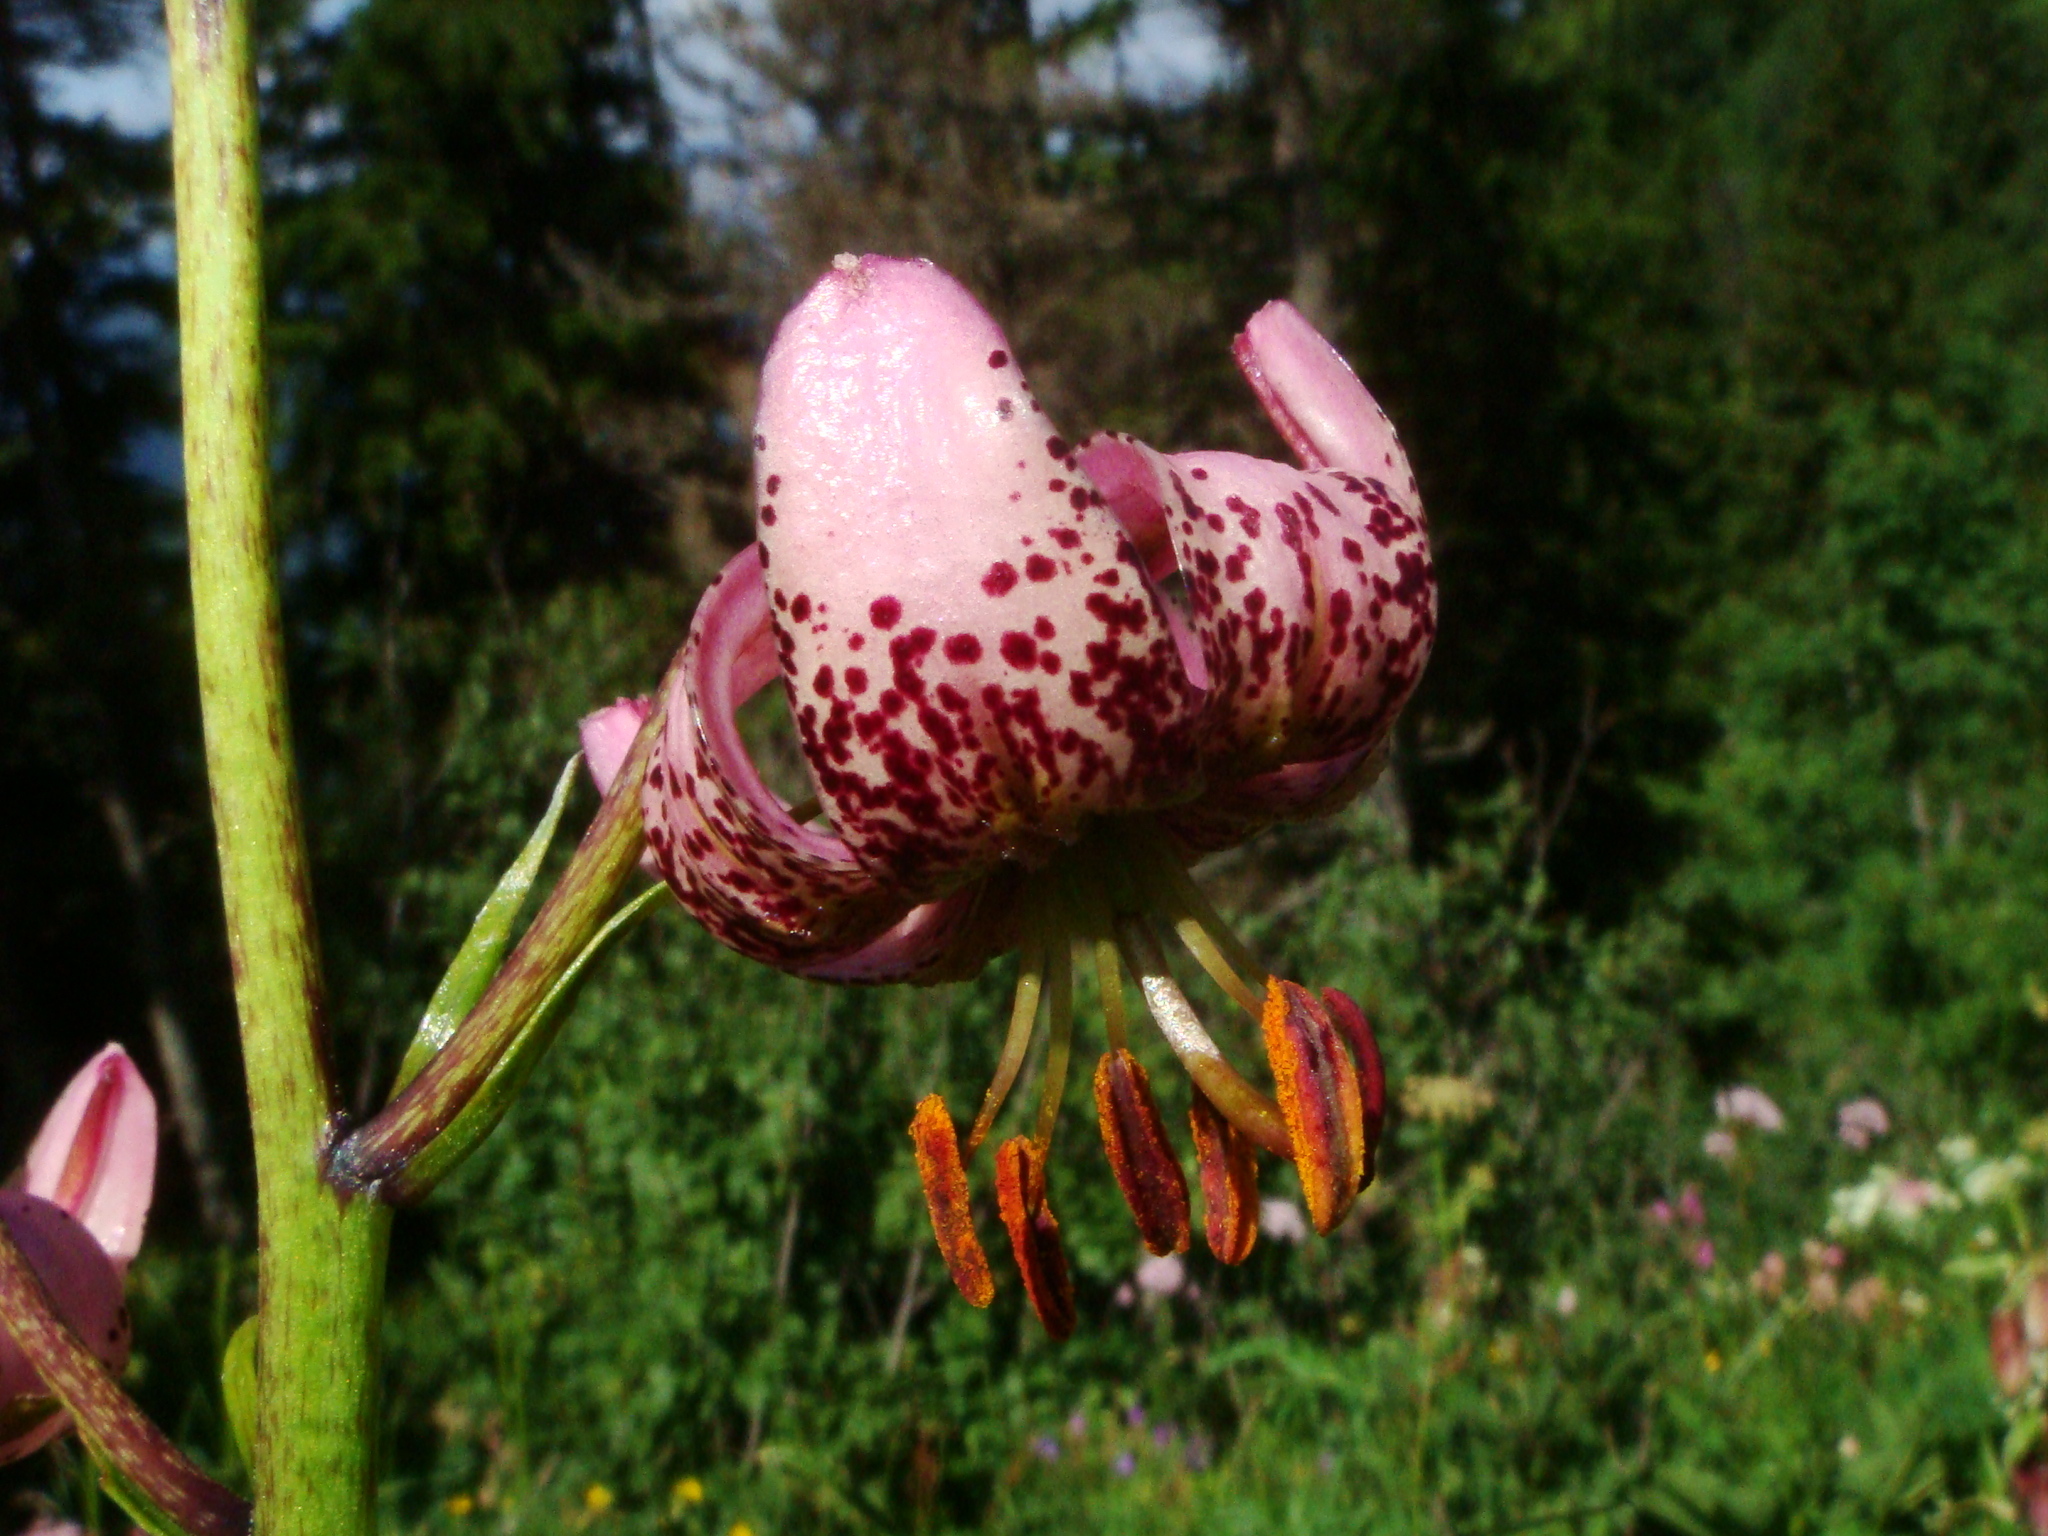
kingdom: Plantae
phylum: Tracheophyta
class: Liliopsida
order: Liliales
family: Liliaceae
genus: Lilium
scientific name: Lilium martagon
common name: Martagon lily
